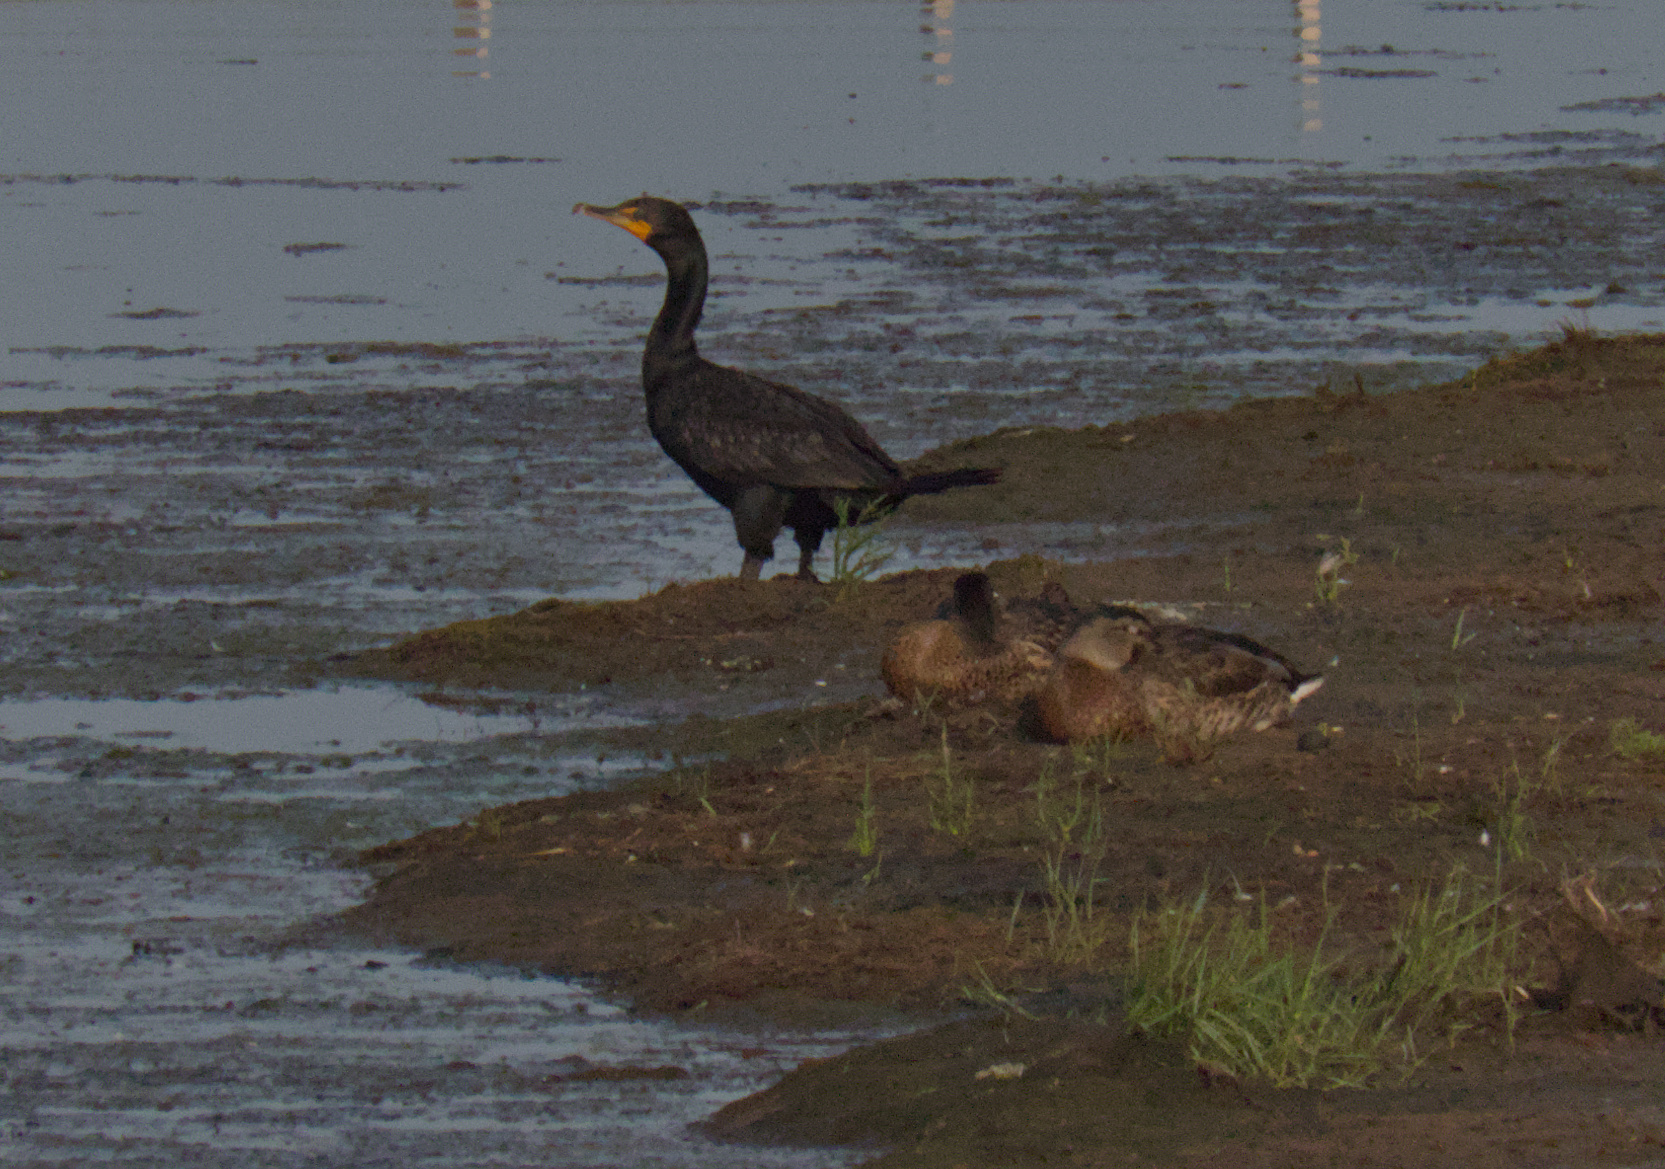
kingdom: Animalia
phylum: Chordata
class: Aves
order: Suliformes
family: Phalacrocoracidae
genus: Phalacrocorax
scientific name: Phalacrocorax auritus
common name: Double-crested cormorant
